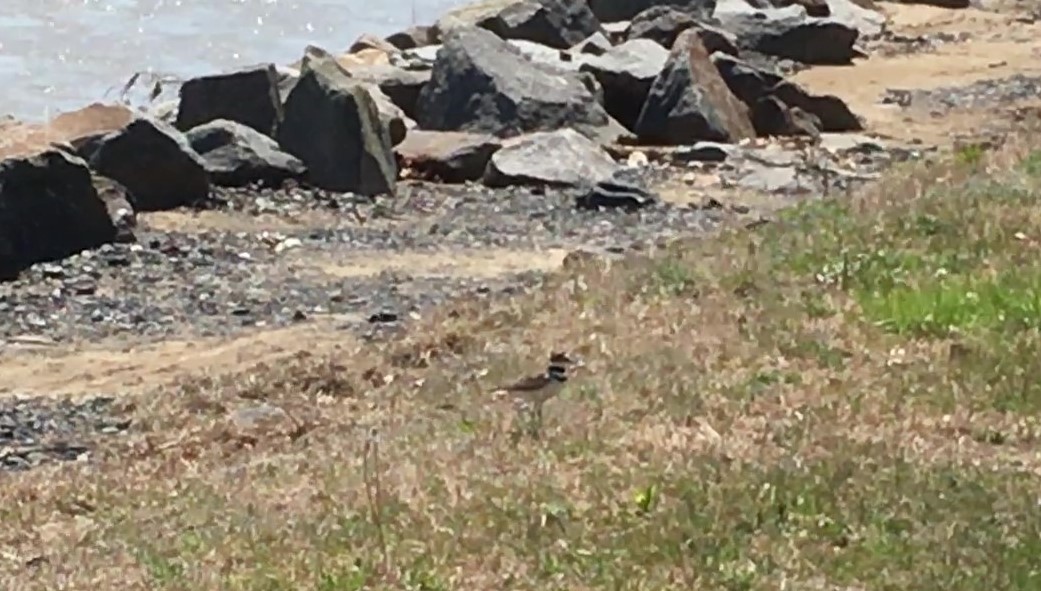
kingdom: Animalia
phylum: Chordata
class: Aves
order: Charadriiformes
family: Charadriidae
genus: Charadrius
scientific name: Charadrius vociferus
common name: Killdeer
